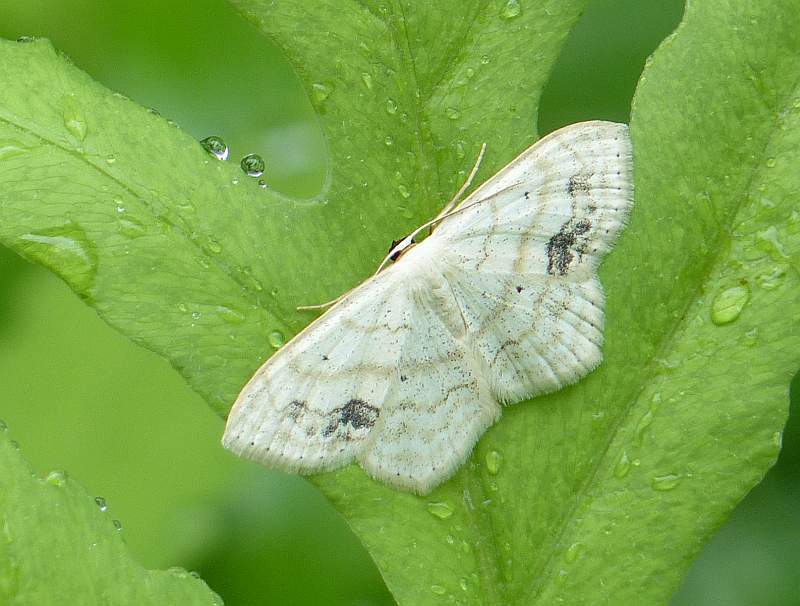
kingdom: Animalia
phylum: Arthropoda
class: Insecta
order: Lepidoptera
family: Geometridae
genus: Scopula
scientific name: Scopula limboundata
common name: Large lace border
